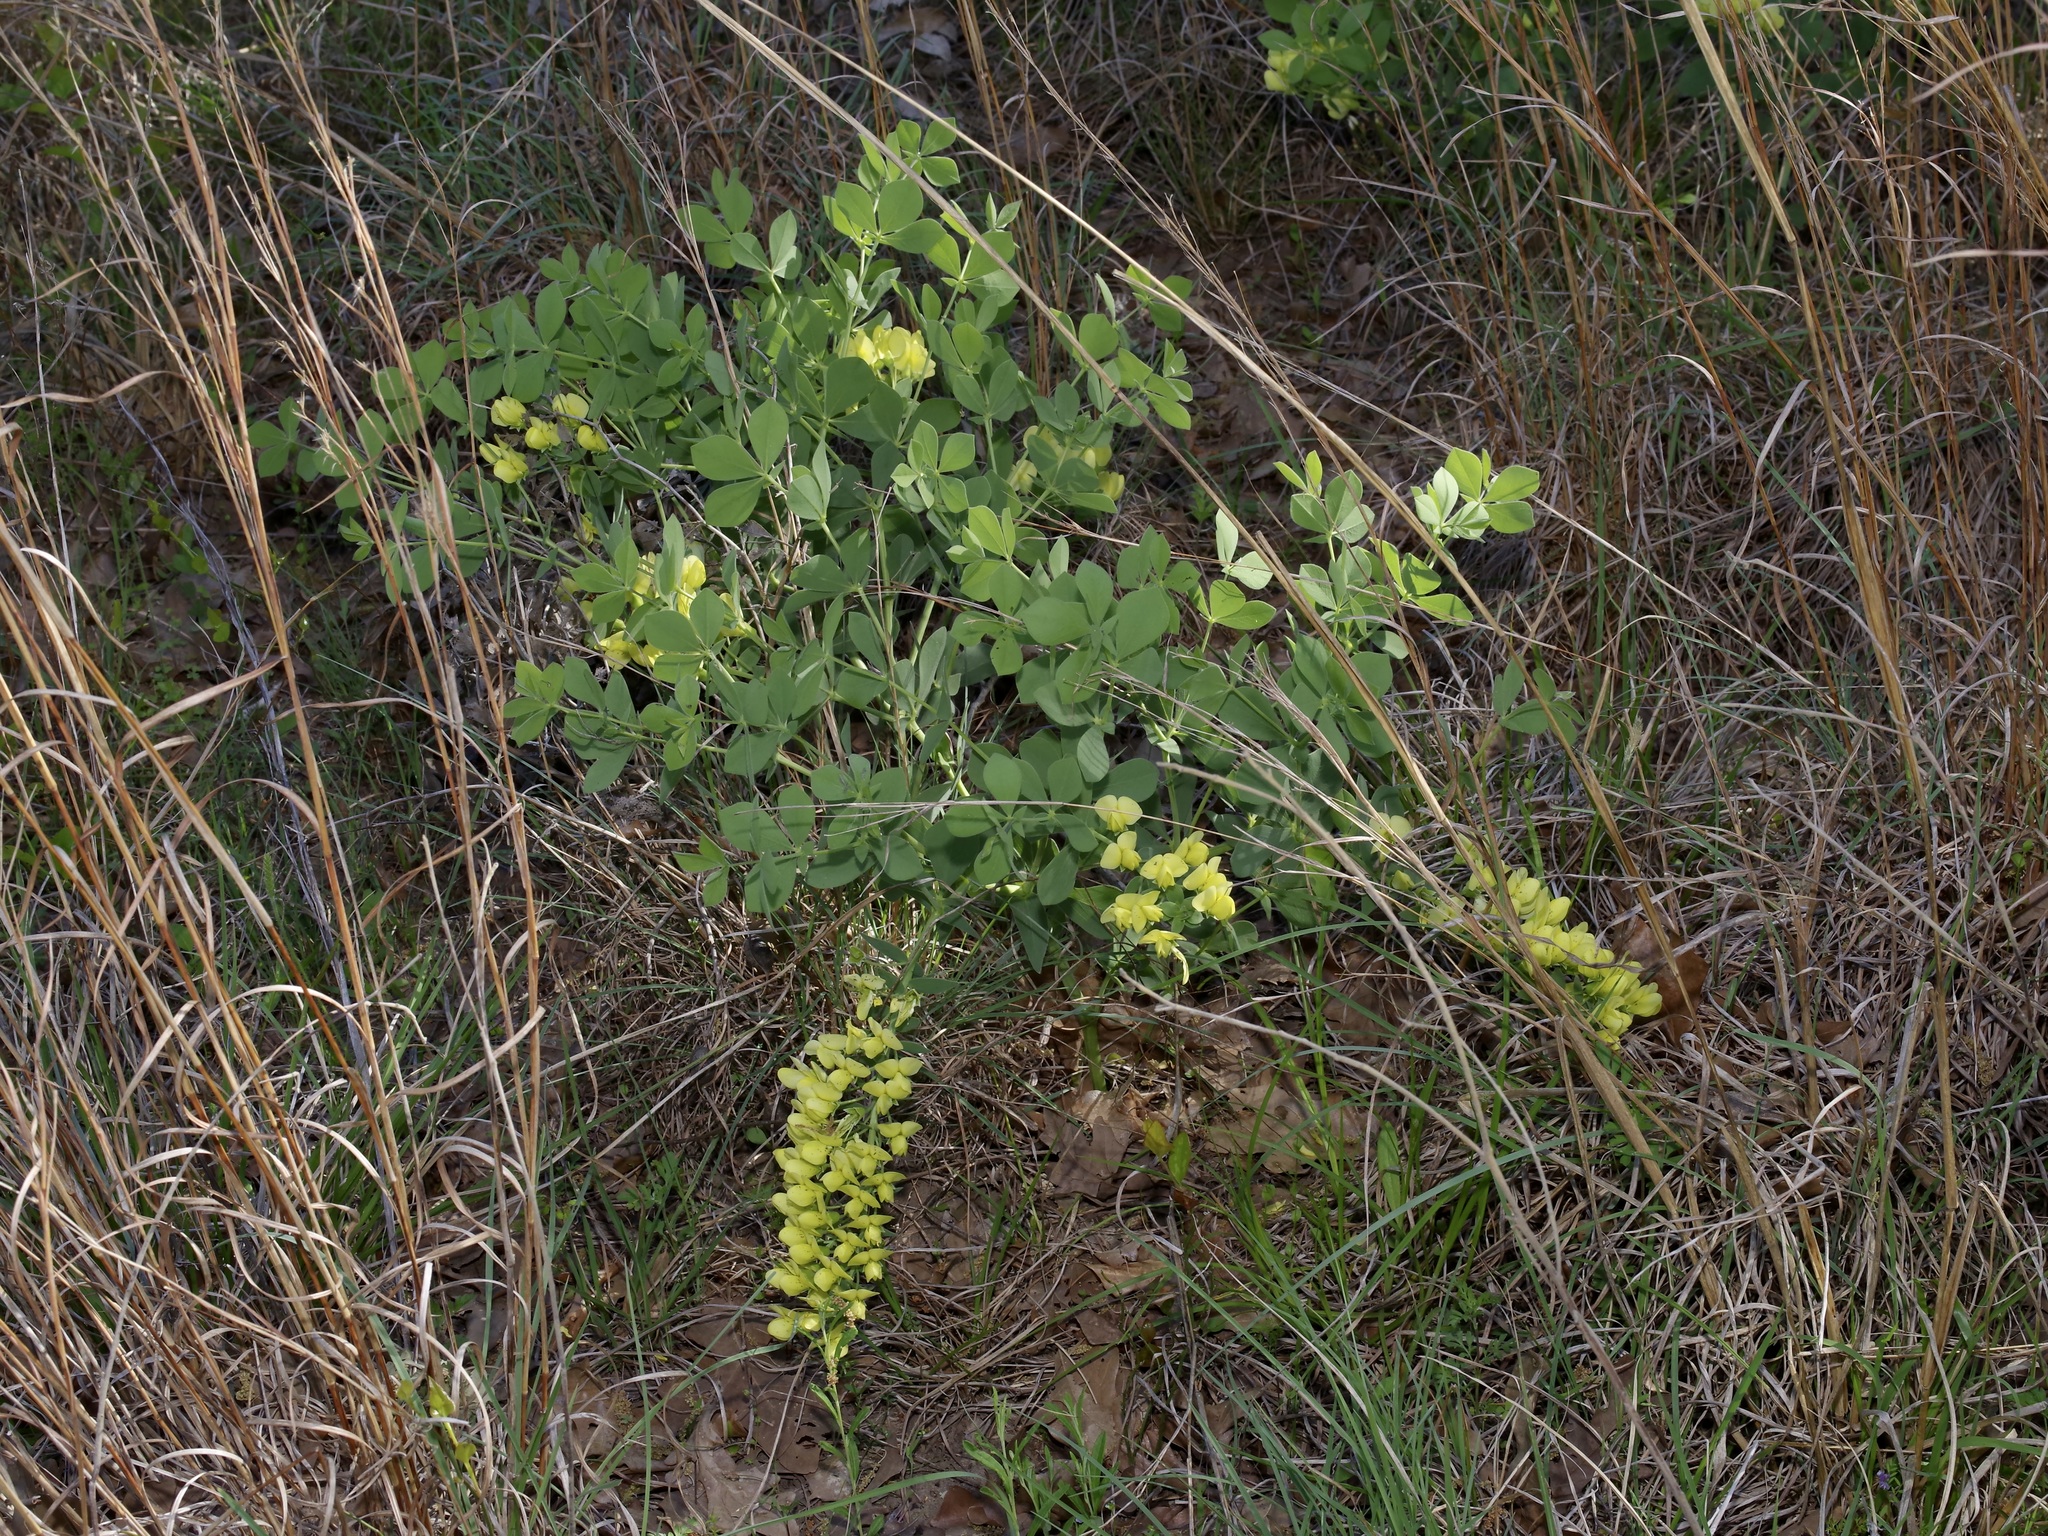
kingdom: Plantae
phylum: Tracheophyta
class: Magnoliopsida
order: Fabales
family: Fabaceae
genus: Baptisia
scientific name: Baptisia bracteata
